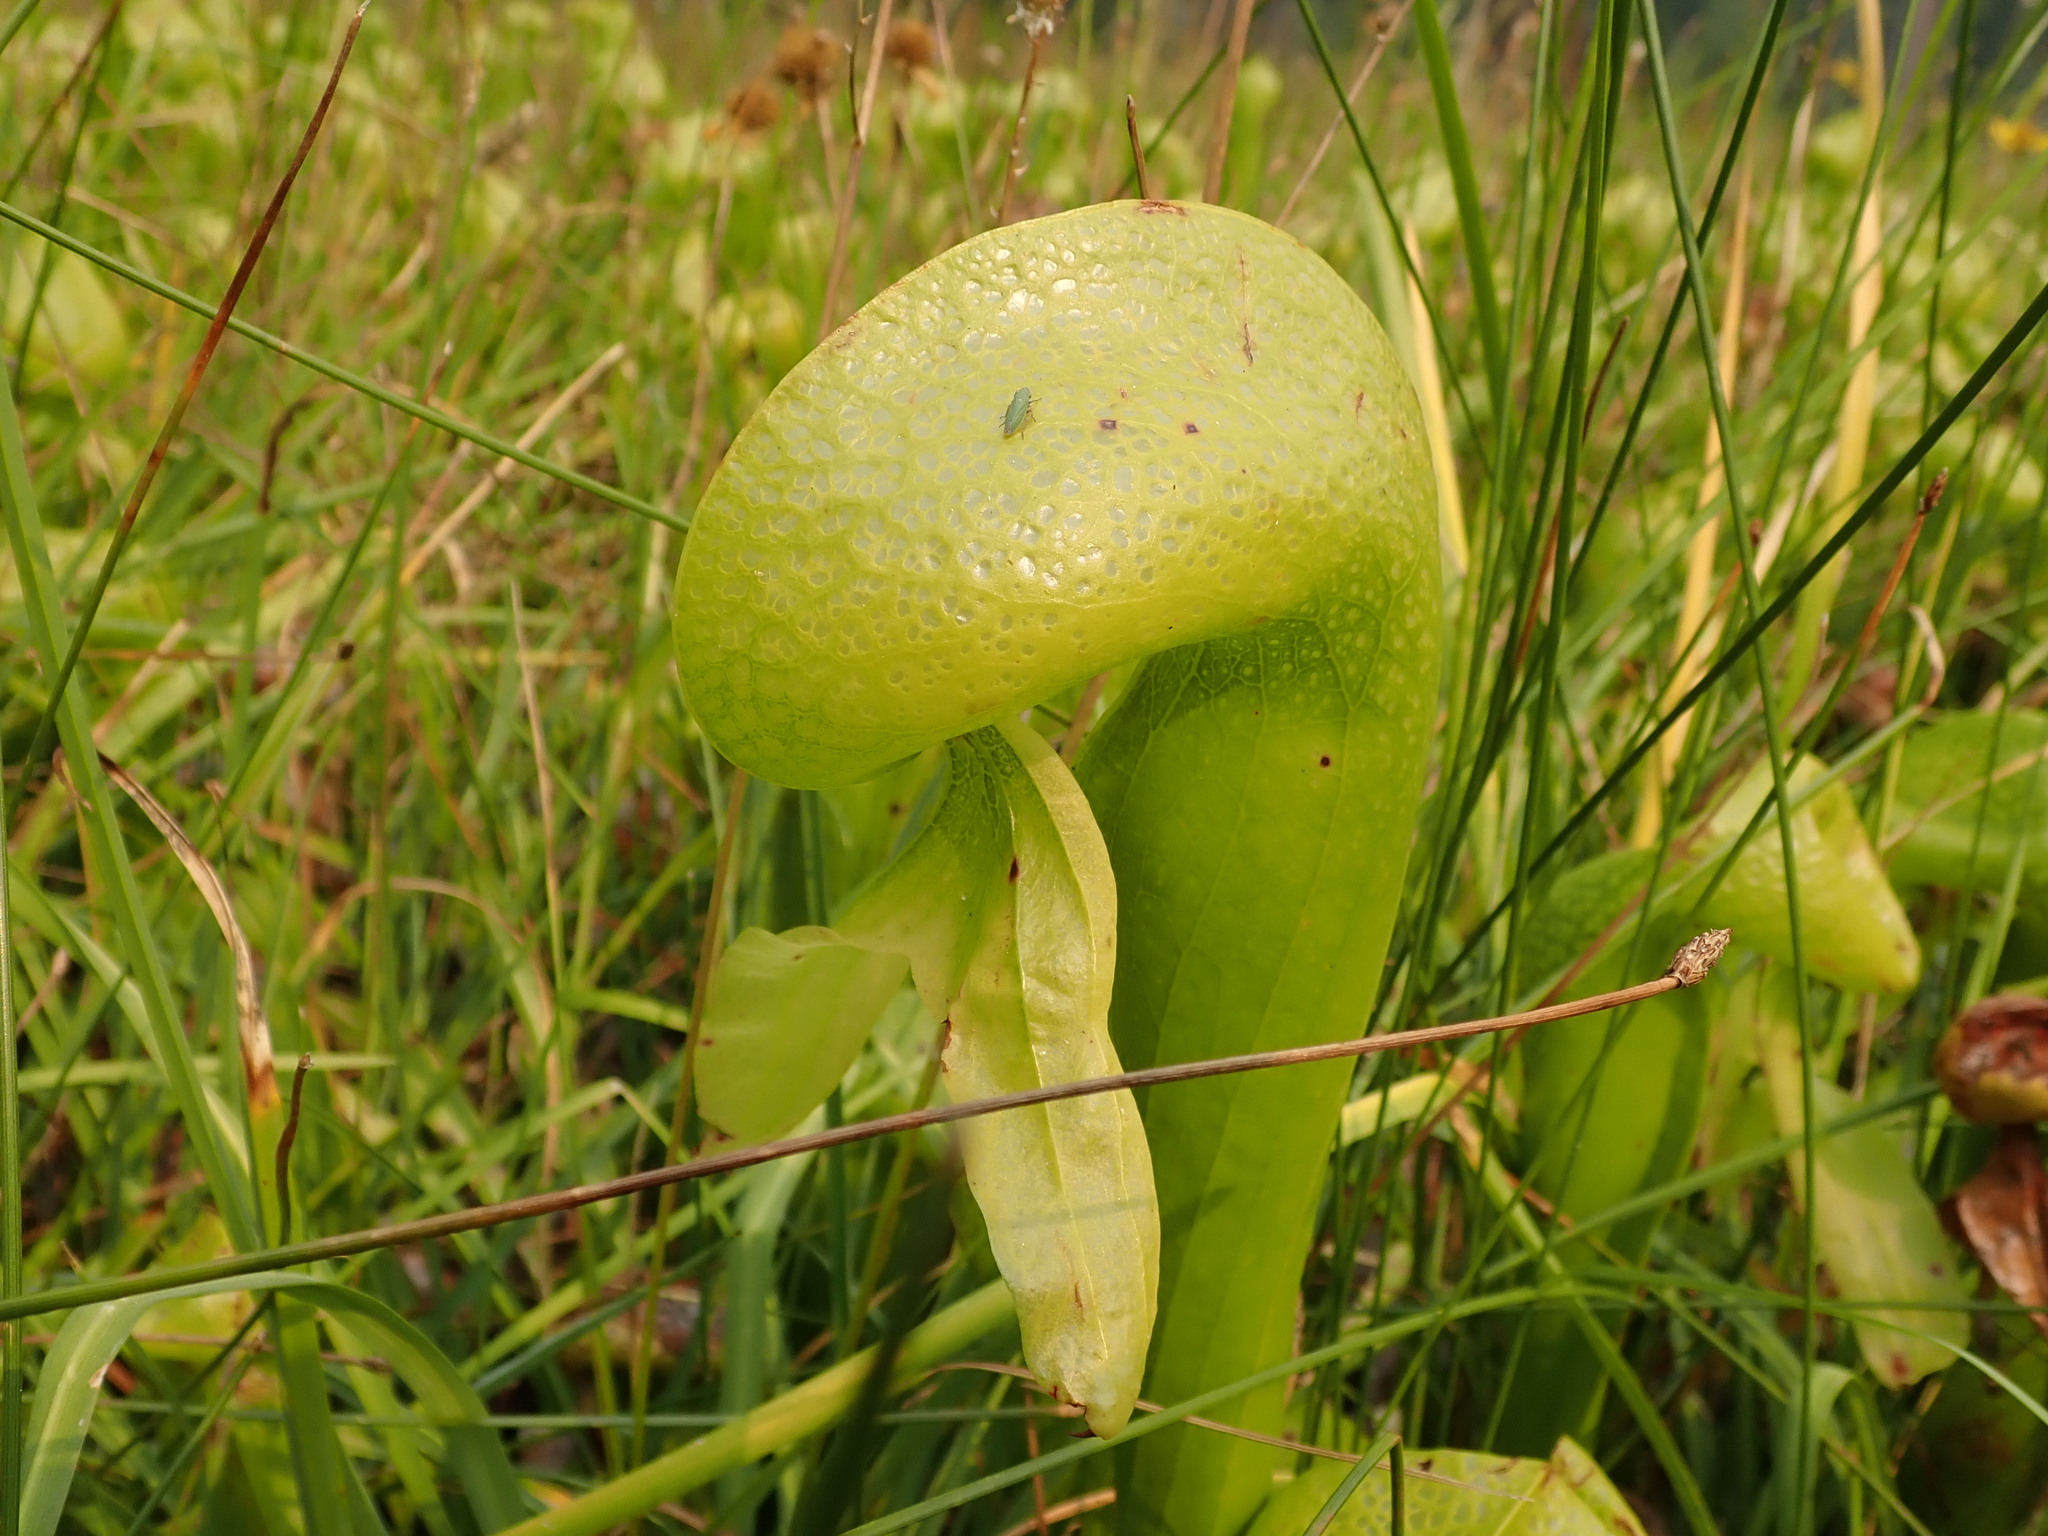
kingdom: Plantae
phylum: Tracheophyta
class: Magnoliopsida
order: Ericales
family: Sarraceniaceae
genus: Darlingtonia
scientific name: Darlingtonia californica
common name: California pitcher plant
